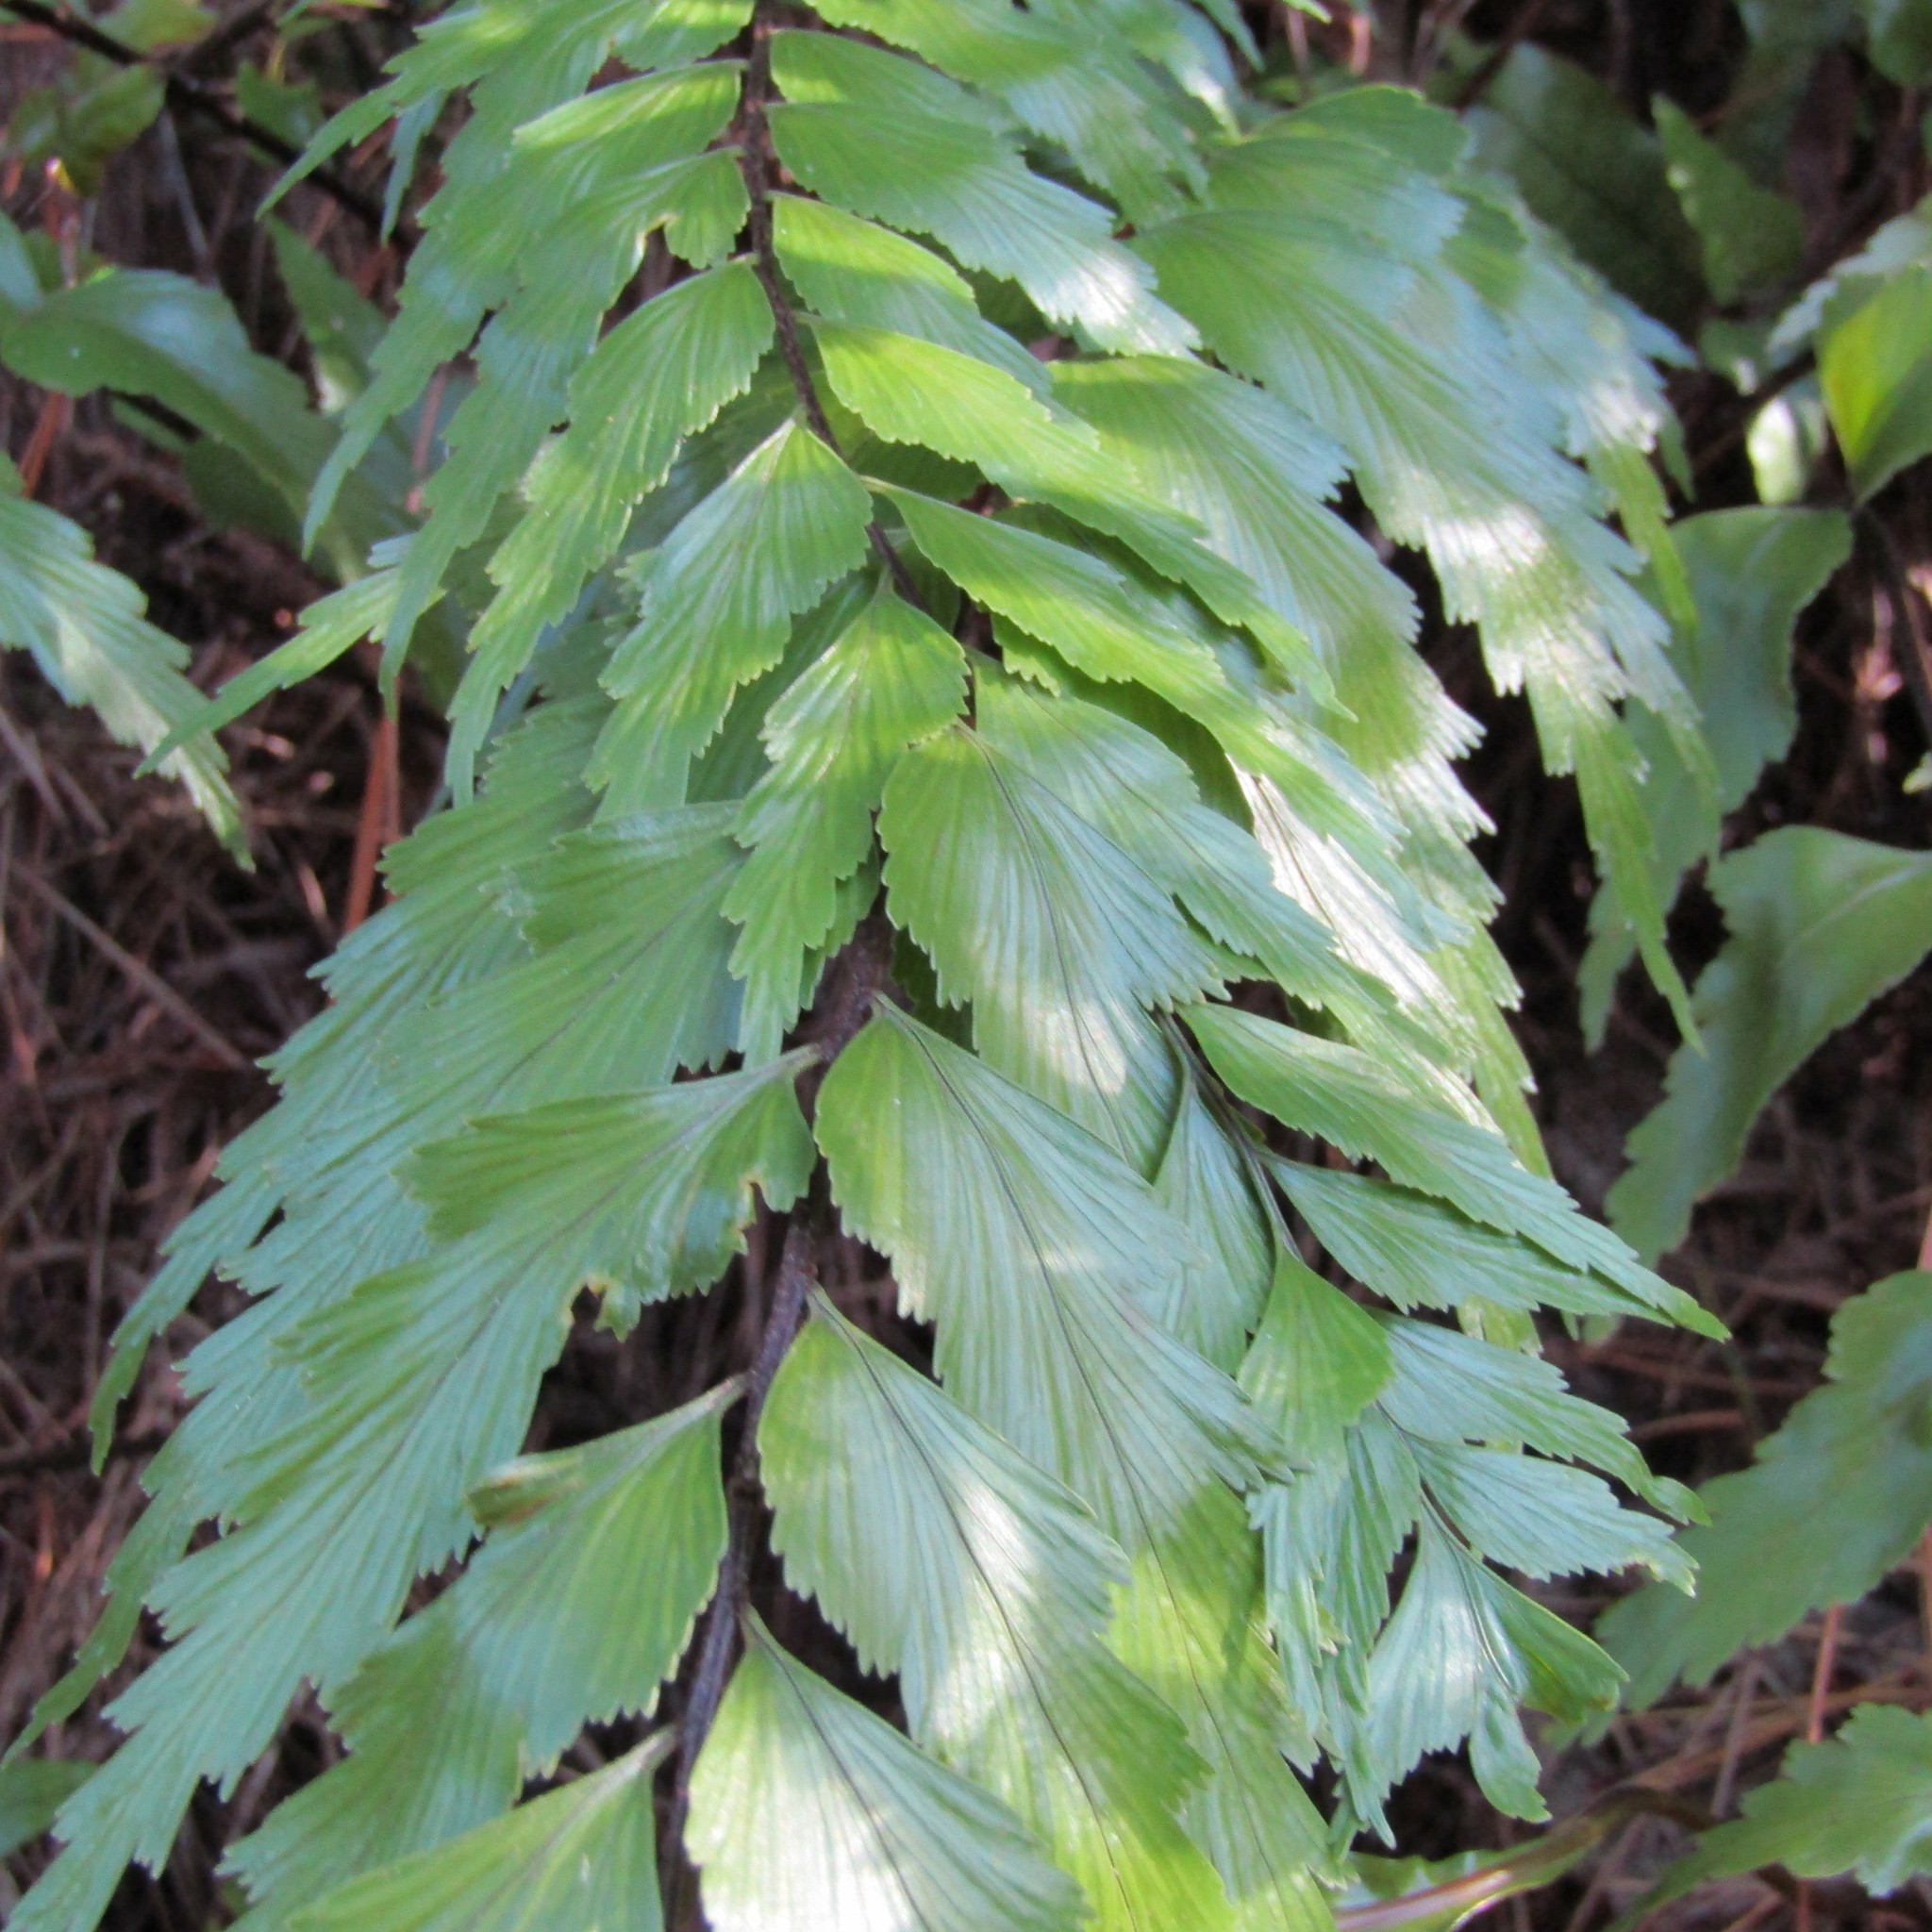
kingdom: Plantae
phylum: Tracheophyta
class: Polypodiopsida
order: Polypodiales
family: Aspleniaceae
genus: Asplenium
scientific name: Asplenium polyodon
